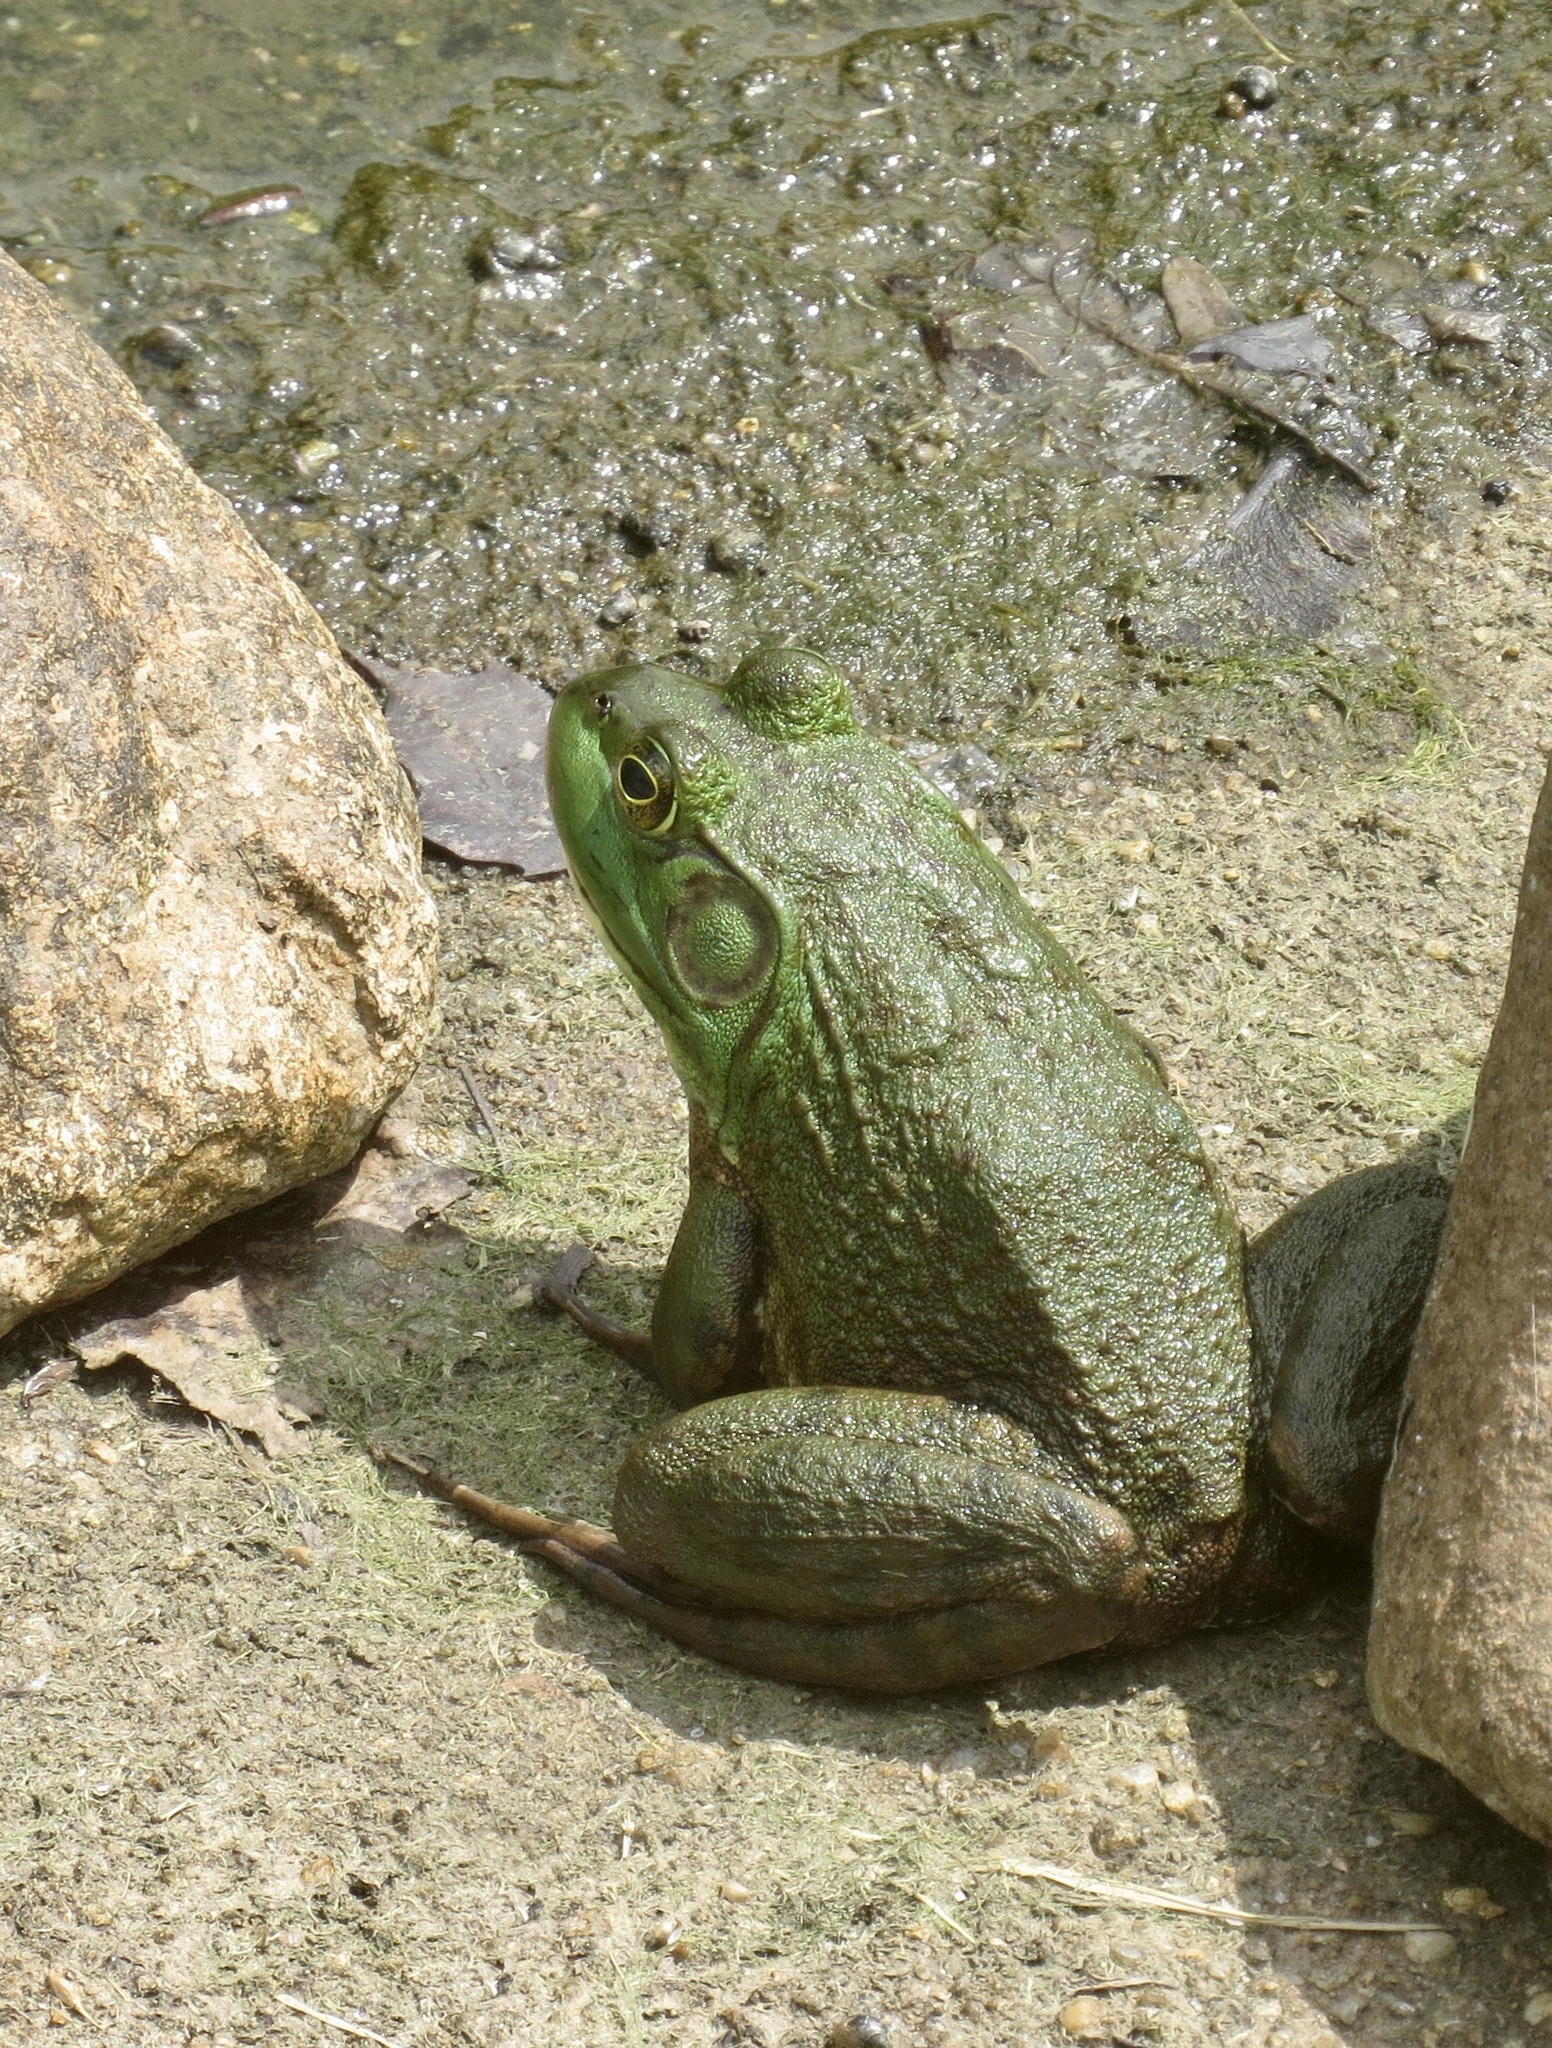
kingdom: Animalia
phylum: Chordata
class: Amphibia
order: Anura
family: Ranidae
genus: Lithobates
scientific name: Lithobates catesbeianus
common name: American bullfrog
